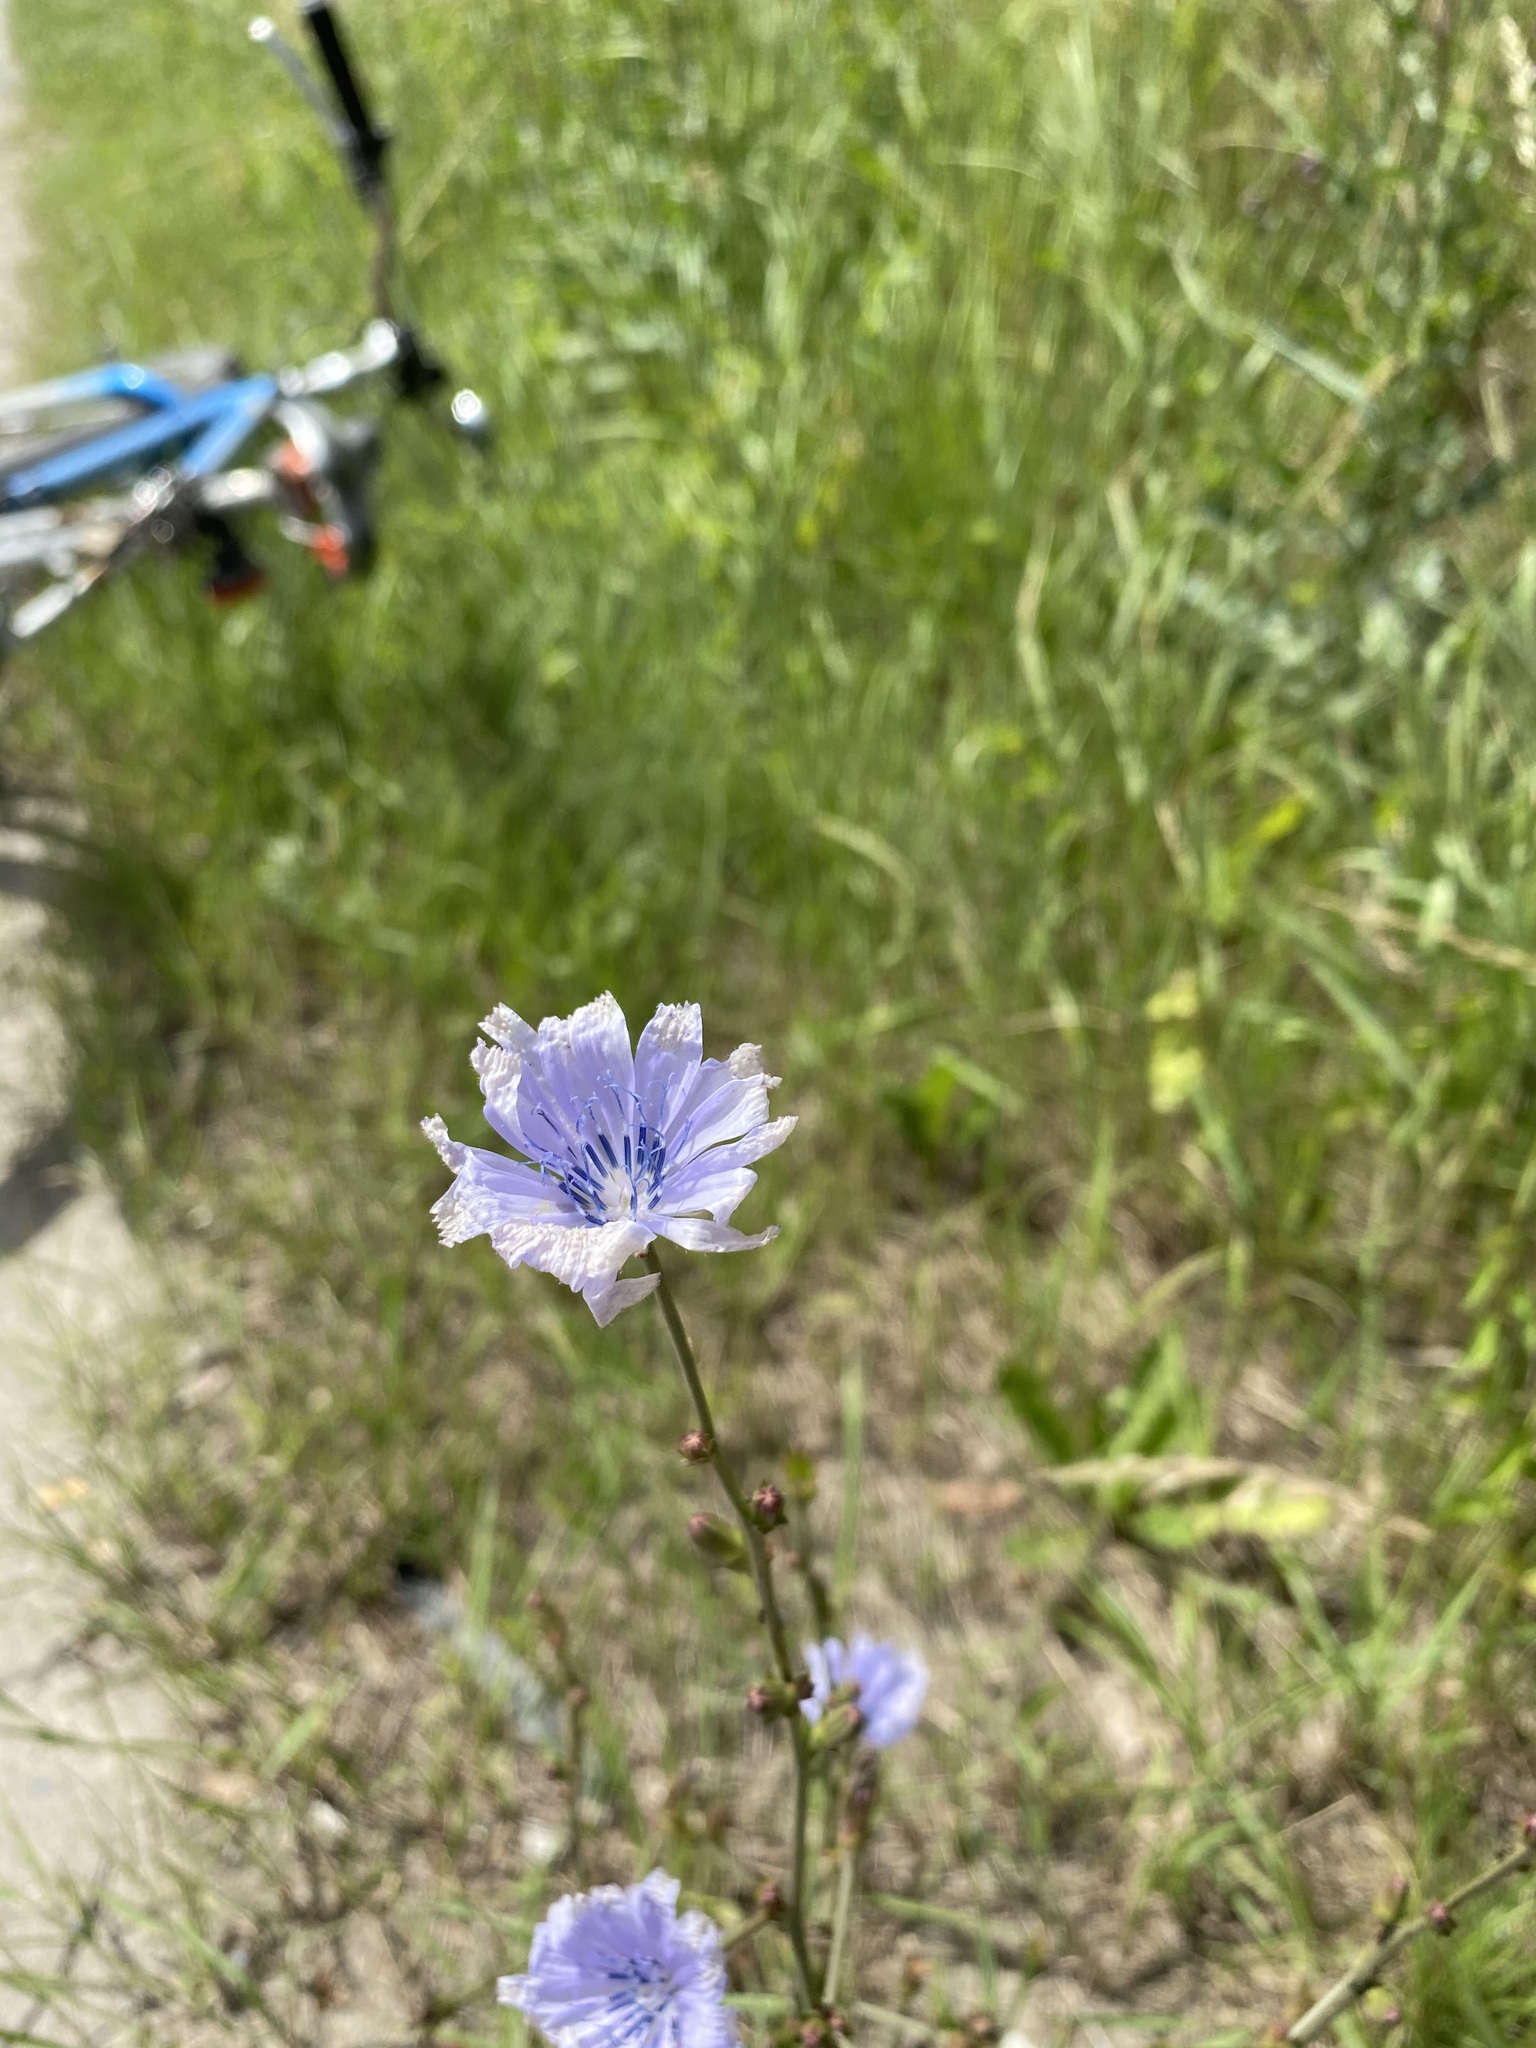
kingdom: Plantae
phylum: Tracheophyta
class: Magnoliopsida
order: Asterales
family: Asteraceae
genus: Cichorium
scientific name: Cichorium intybus
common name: Chicory
